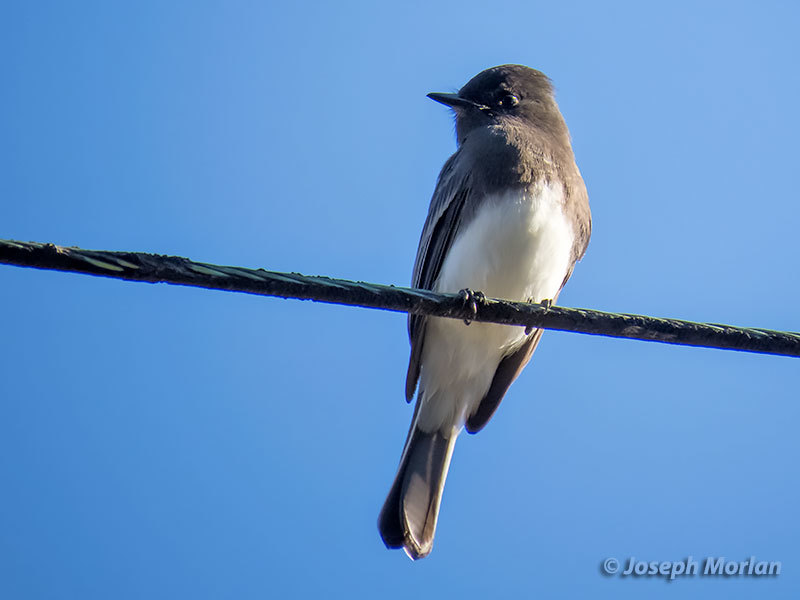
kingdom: Animalia
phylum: Chordata
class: Aves
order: Passeriformes
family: Tyrannidae
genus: Sayornis
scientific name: Sayornis nigricans
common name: Black phoebe
